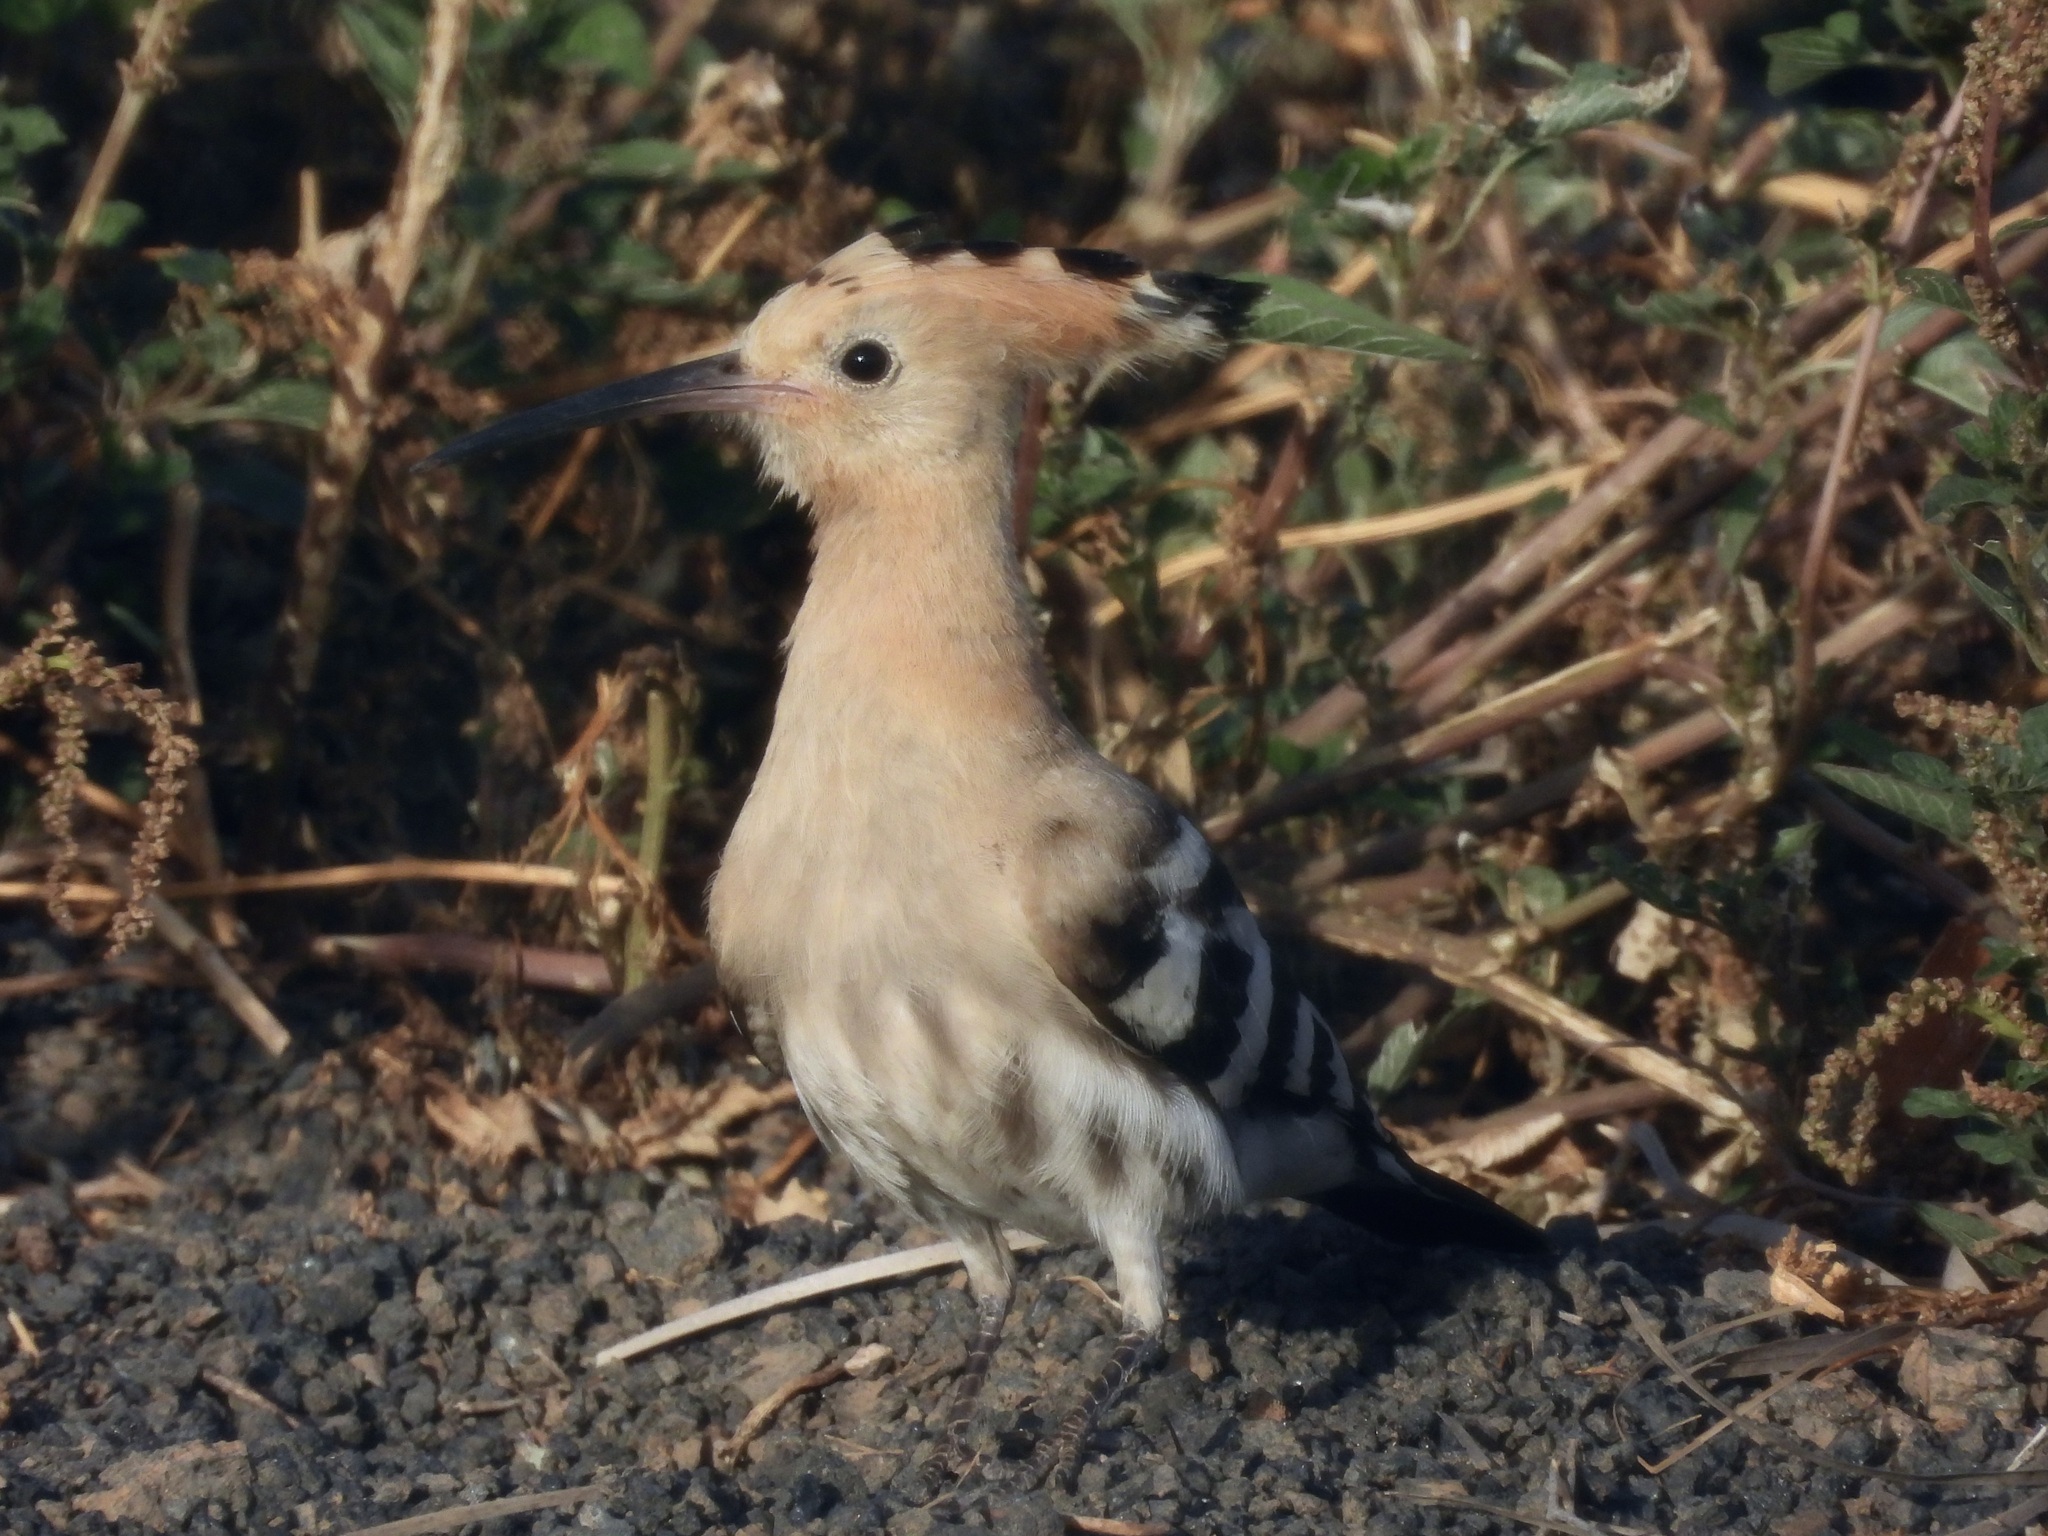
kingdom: Animalia
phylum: Chordata
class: Aves
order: Bucerotiformes
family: Upupidae
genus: Upupa
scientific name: Upupa epops
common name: Eurasian hoopoe
